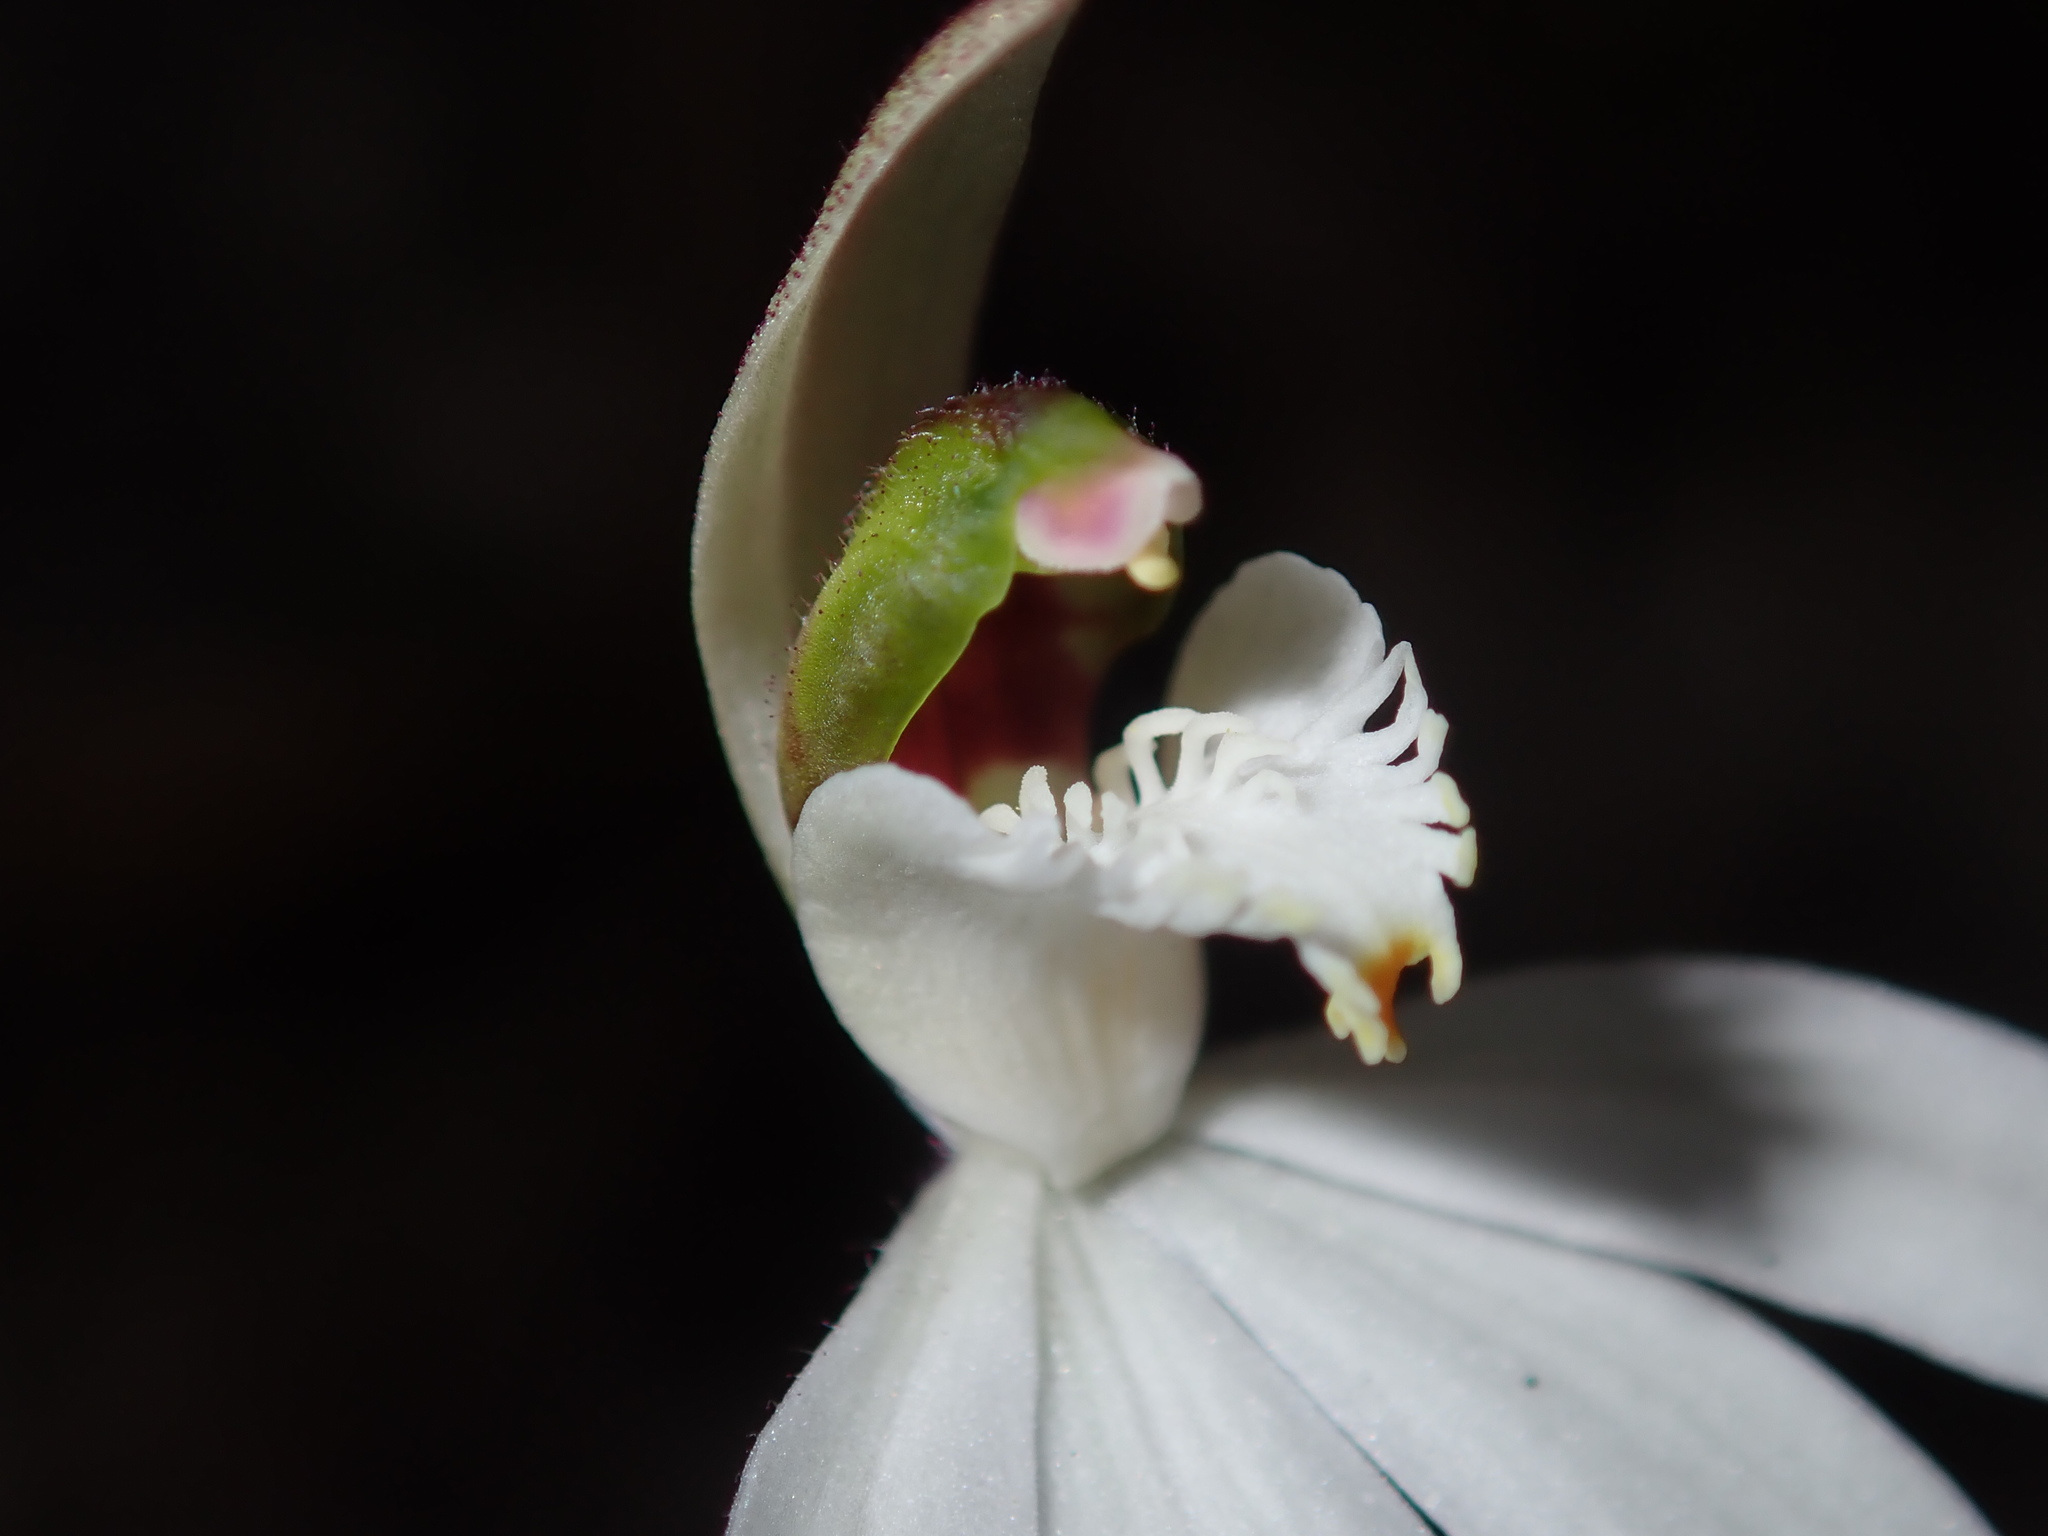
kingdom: Plantae
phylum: Tracheophyta
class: Liliopsida
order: Asparagales
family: Orchidaceae
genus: Caladenia
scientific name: Caladenia picta
